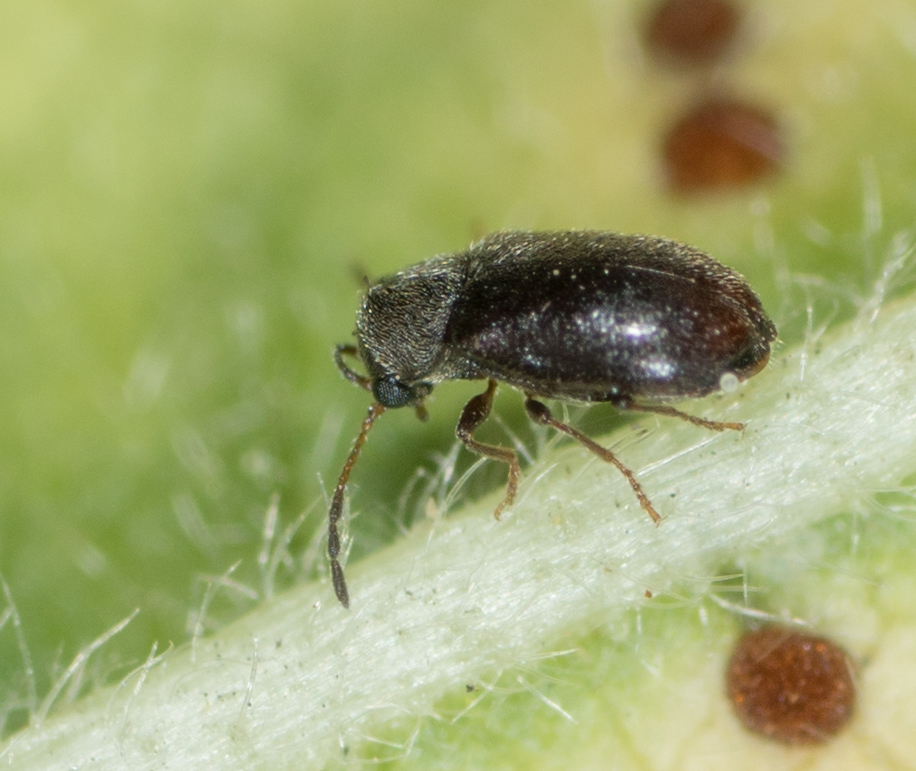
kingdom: Animalia
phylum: Arthropoda
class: Insecta
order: Coleoptera
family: Anobiidae
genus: Ozognathus
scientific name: Ozognathus cornutus
